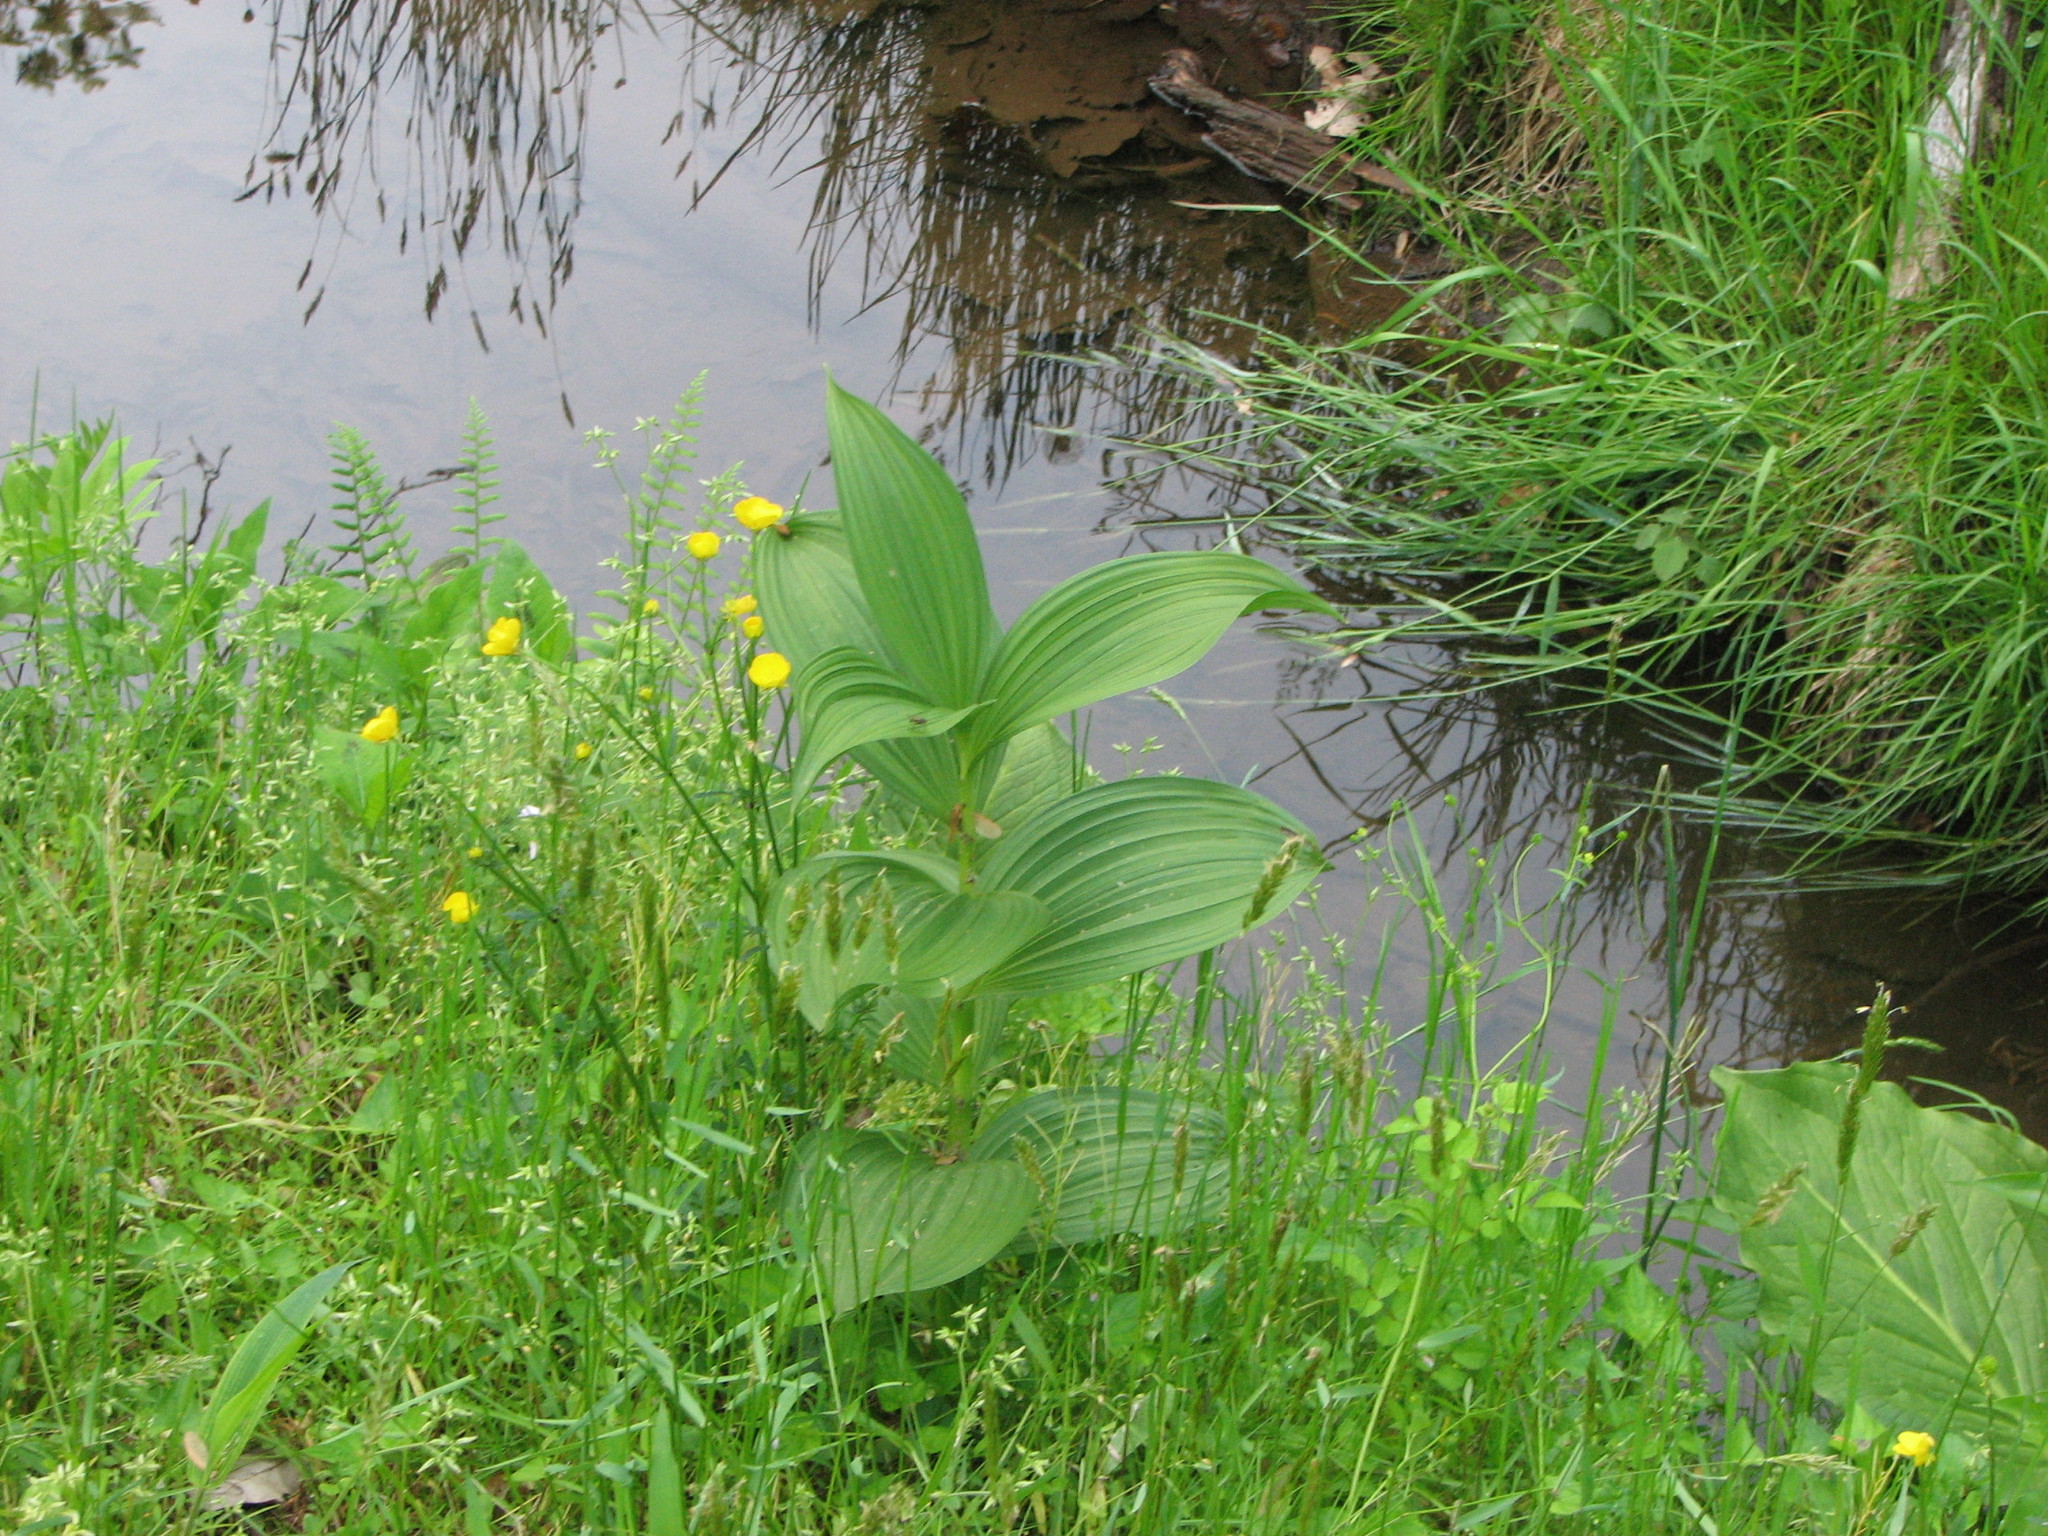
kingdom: Plantae
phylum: Tracheophyta
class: Liliopsida
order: Liliales
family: Melanthiaceae
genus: Veratrum
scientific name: Veratrum viride
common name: American false hellebore
